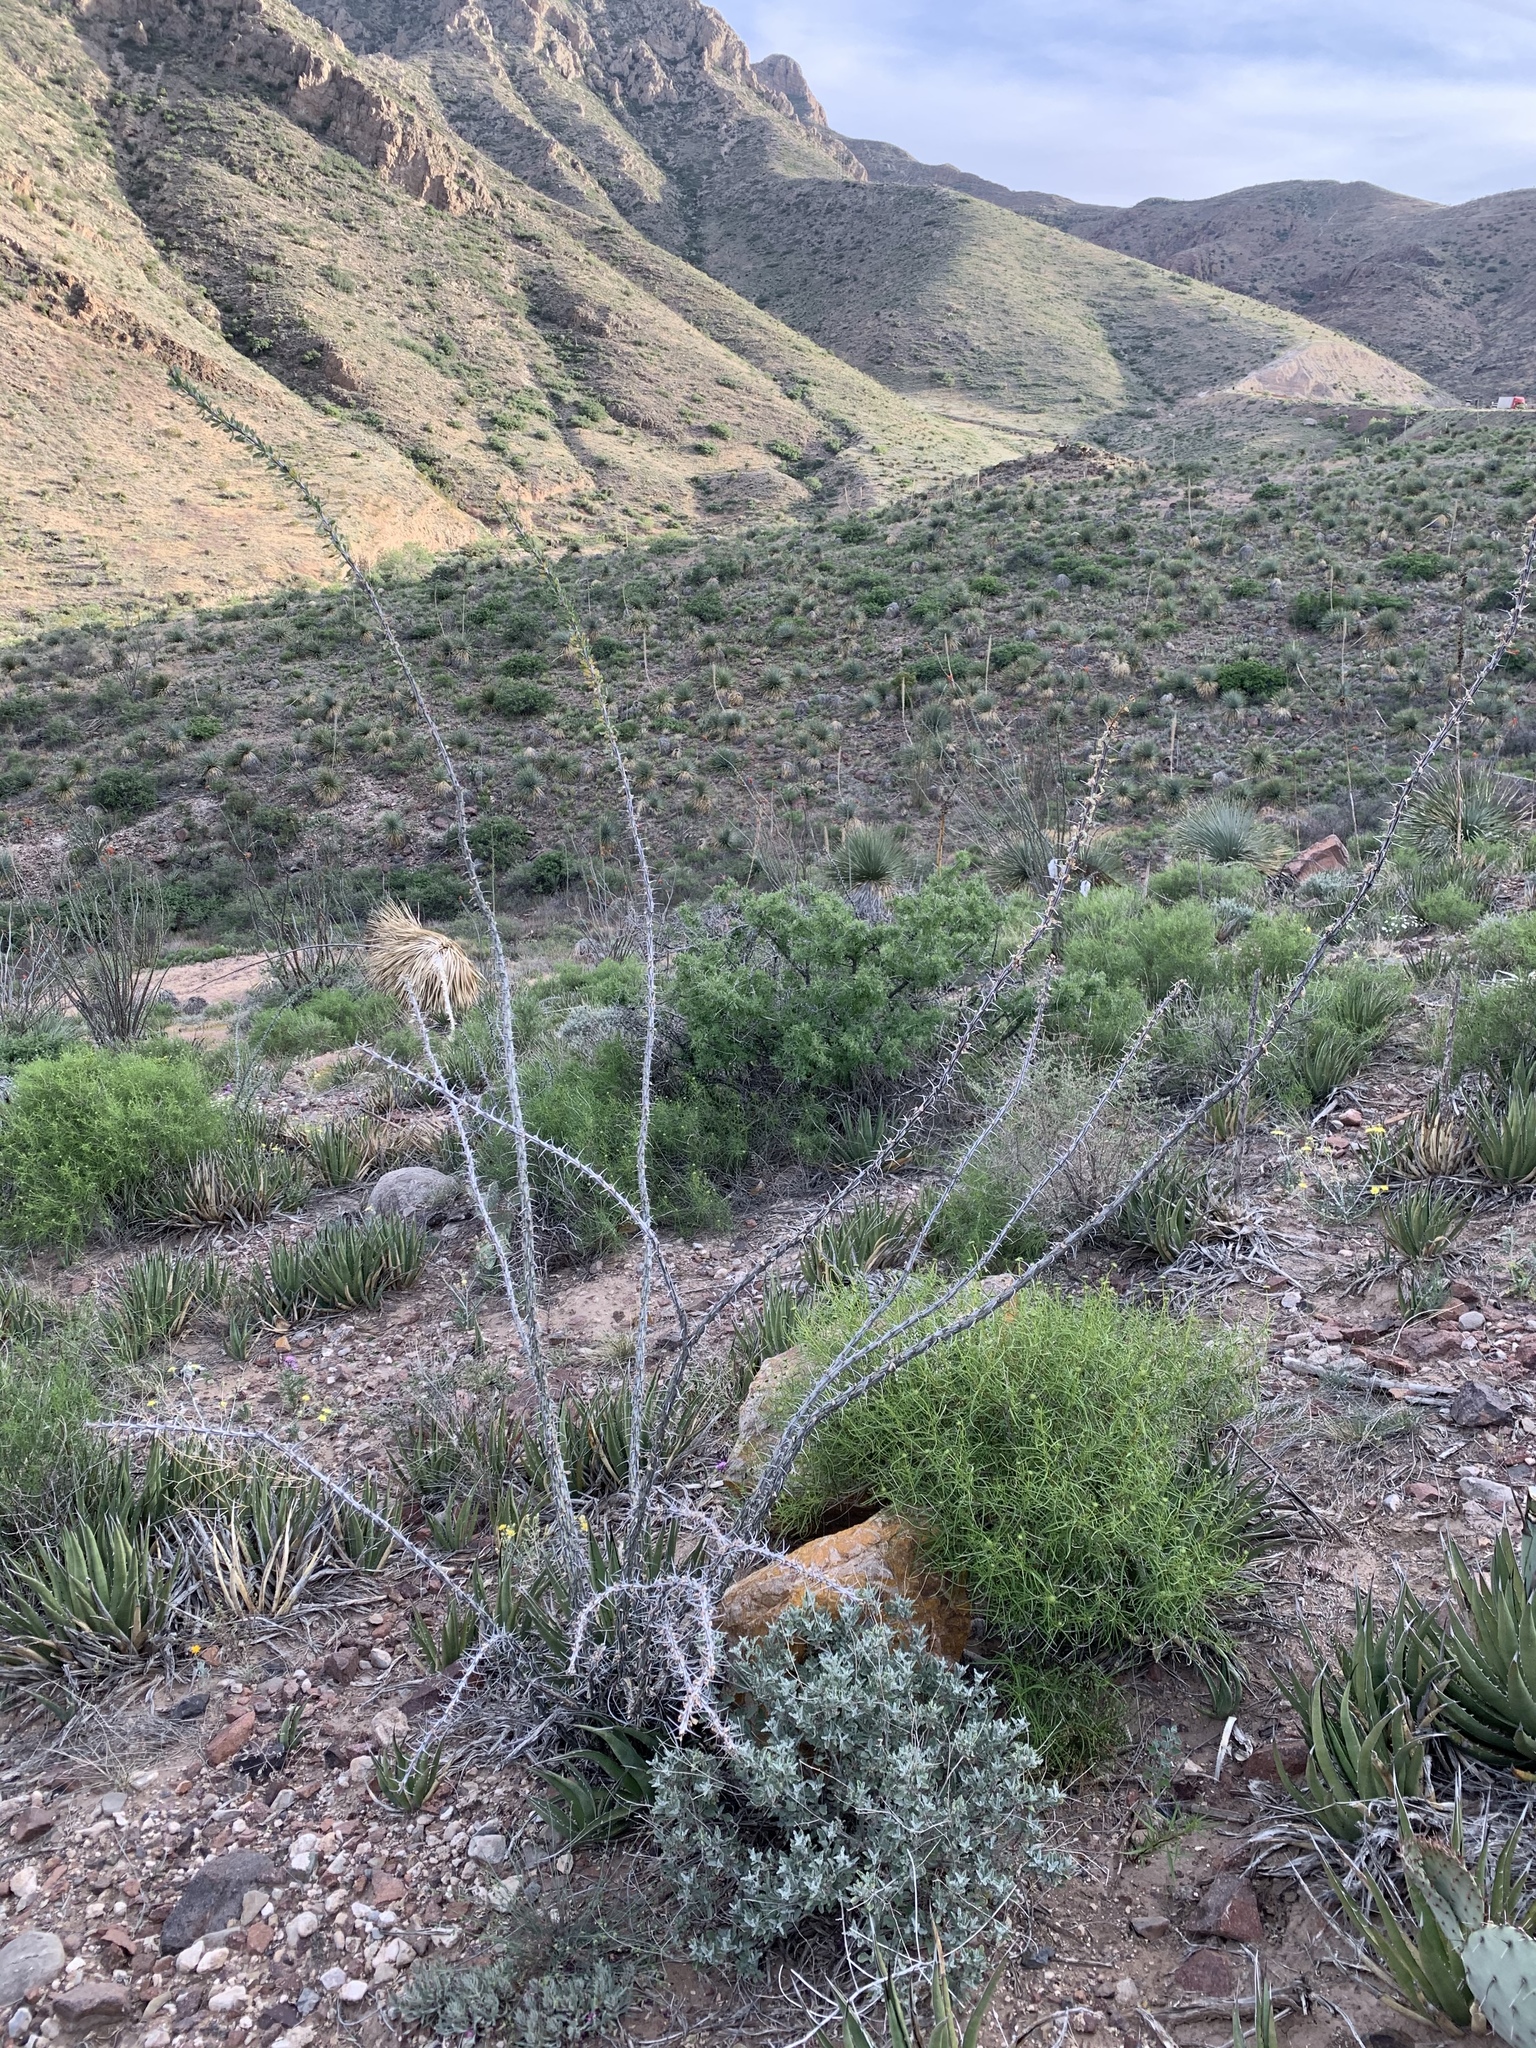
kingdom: Plantae
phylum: Tracheophyta
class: Magnoliopsida
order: Ericales
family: Fouquieriaceae
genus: Fouquieria
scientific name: Fouquieria splendens
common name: Vine-cactus
